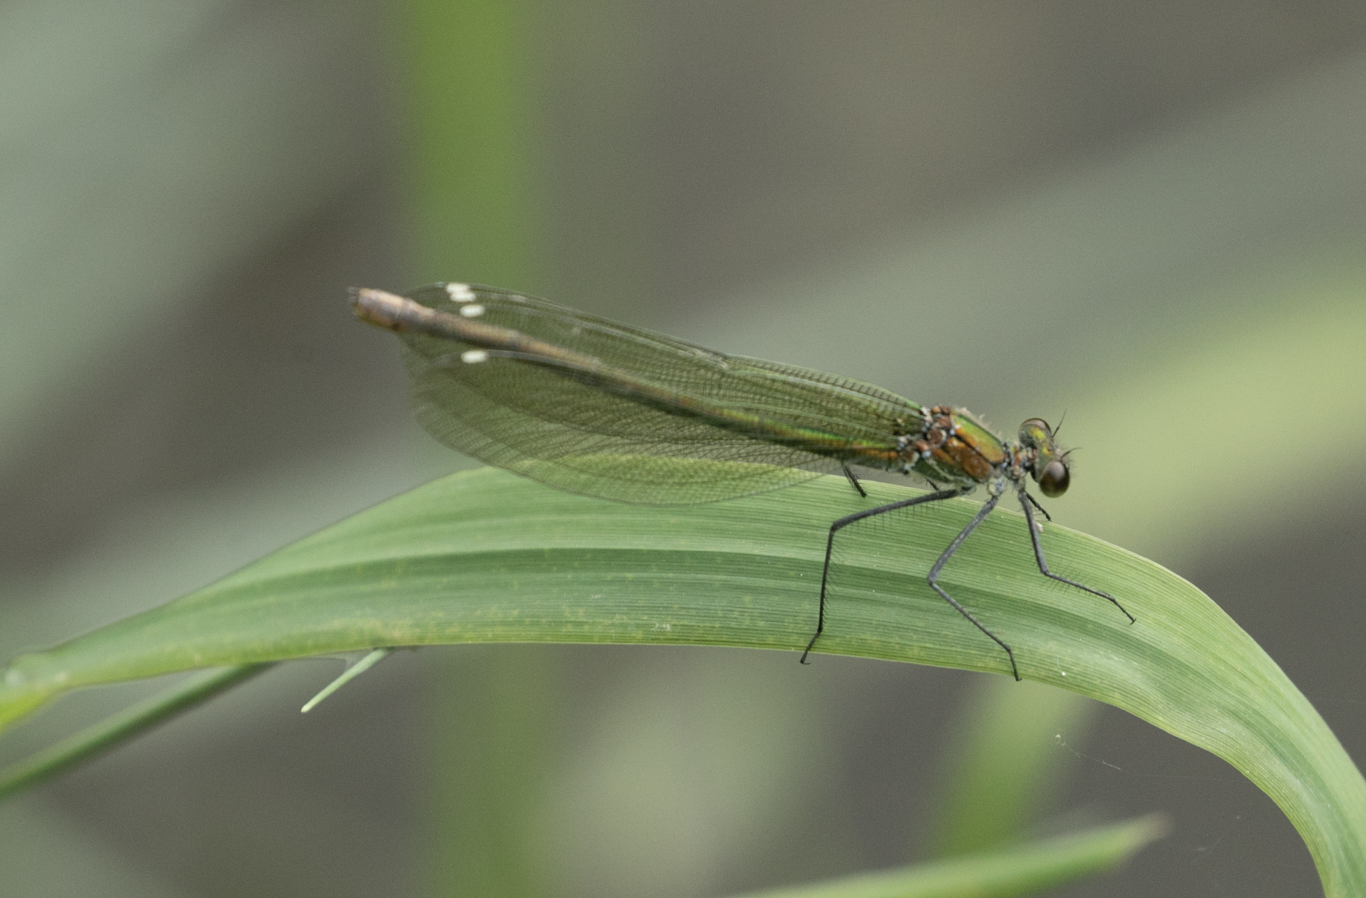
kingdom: Animalia
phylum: Arthropoda
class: Insecta
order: Odonata
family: Calopterygidae
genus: Calopteryx
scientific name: Calopteryx splendens
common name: Banded demoiselle
